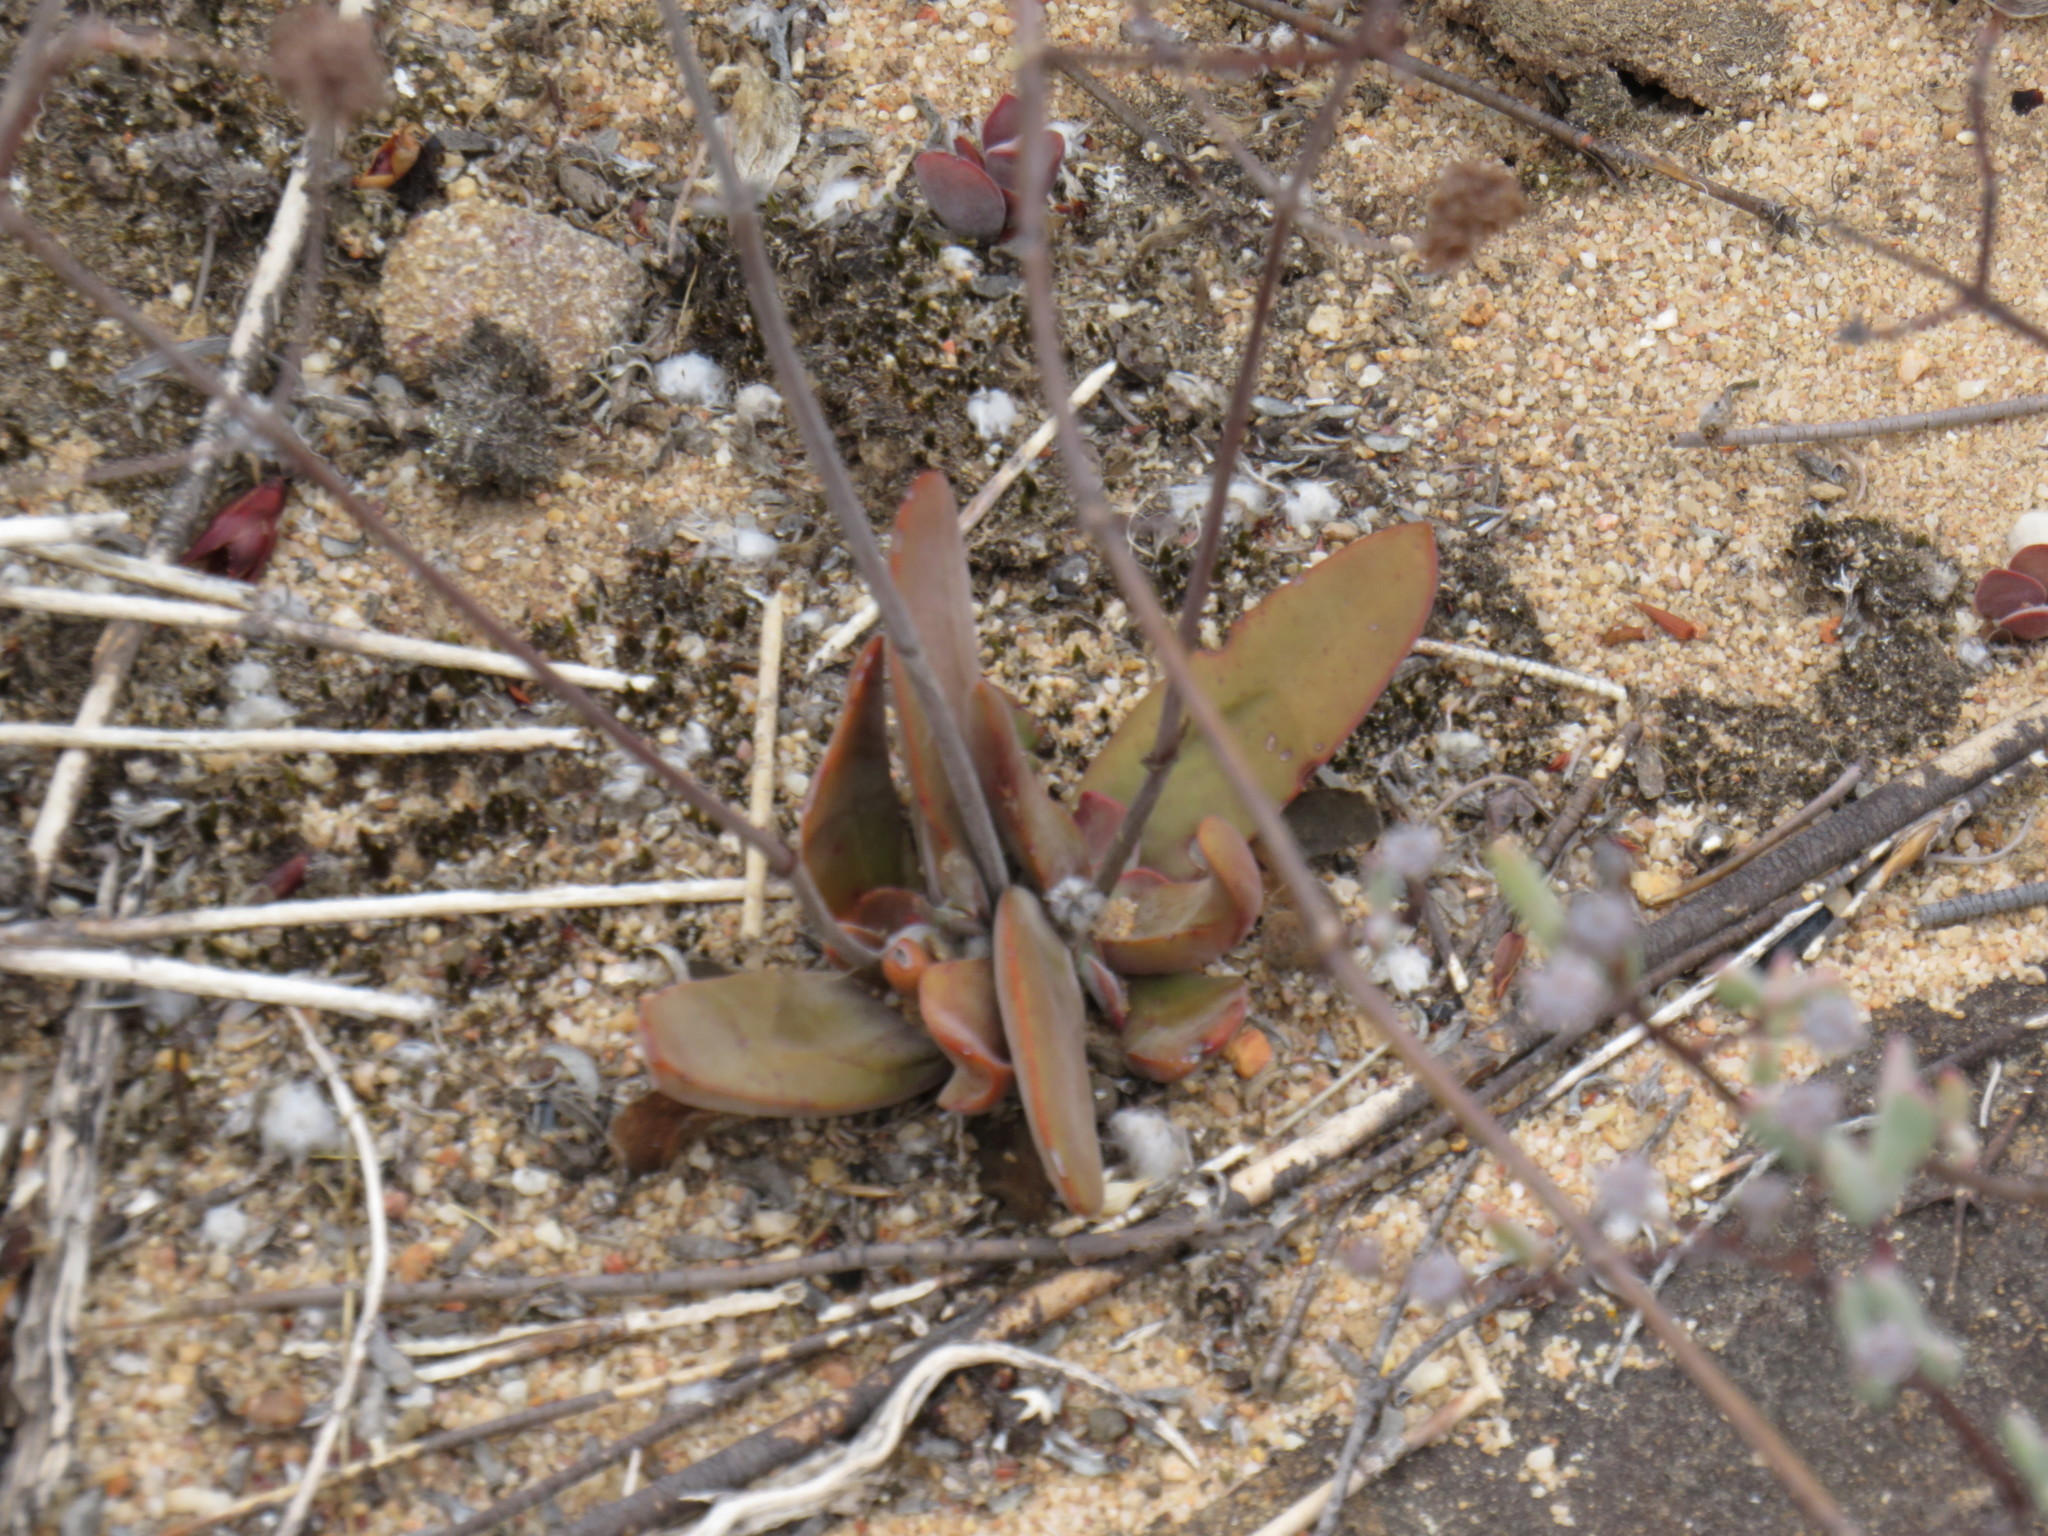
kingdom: Plantae
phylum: Tracheophyta
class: Magnoliopsida
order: Saxifragales
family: Crassulaceae
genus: Crassula
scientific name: Crassula nudicaulis
